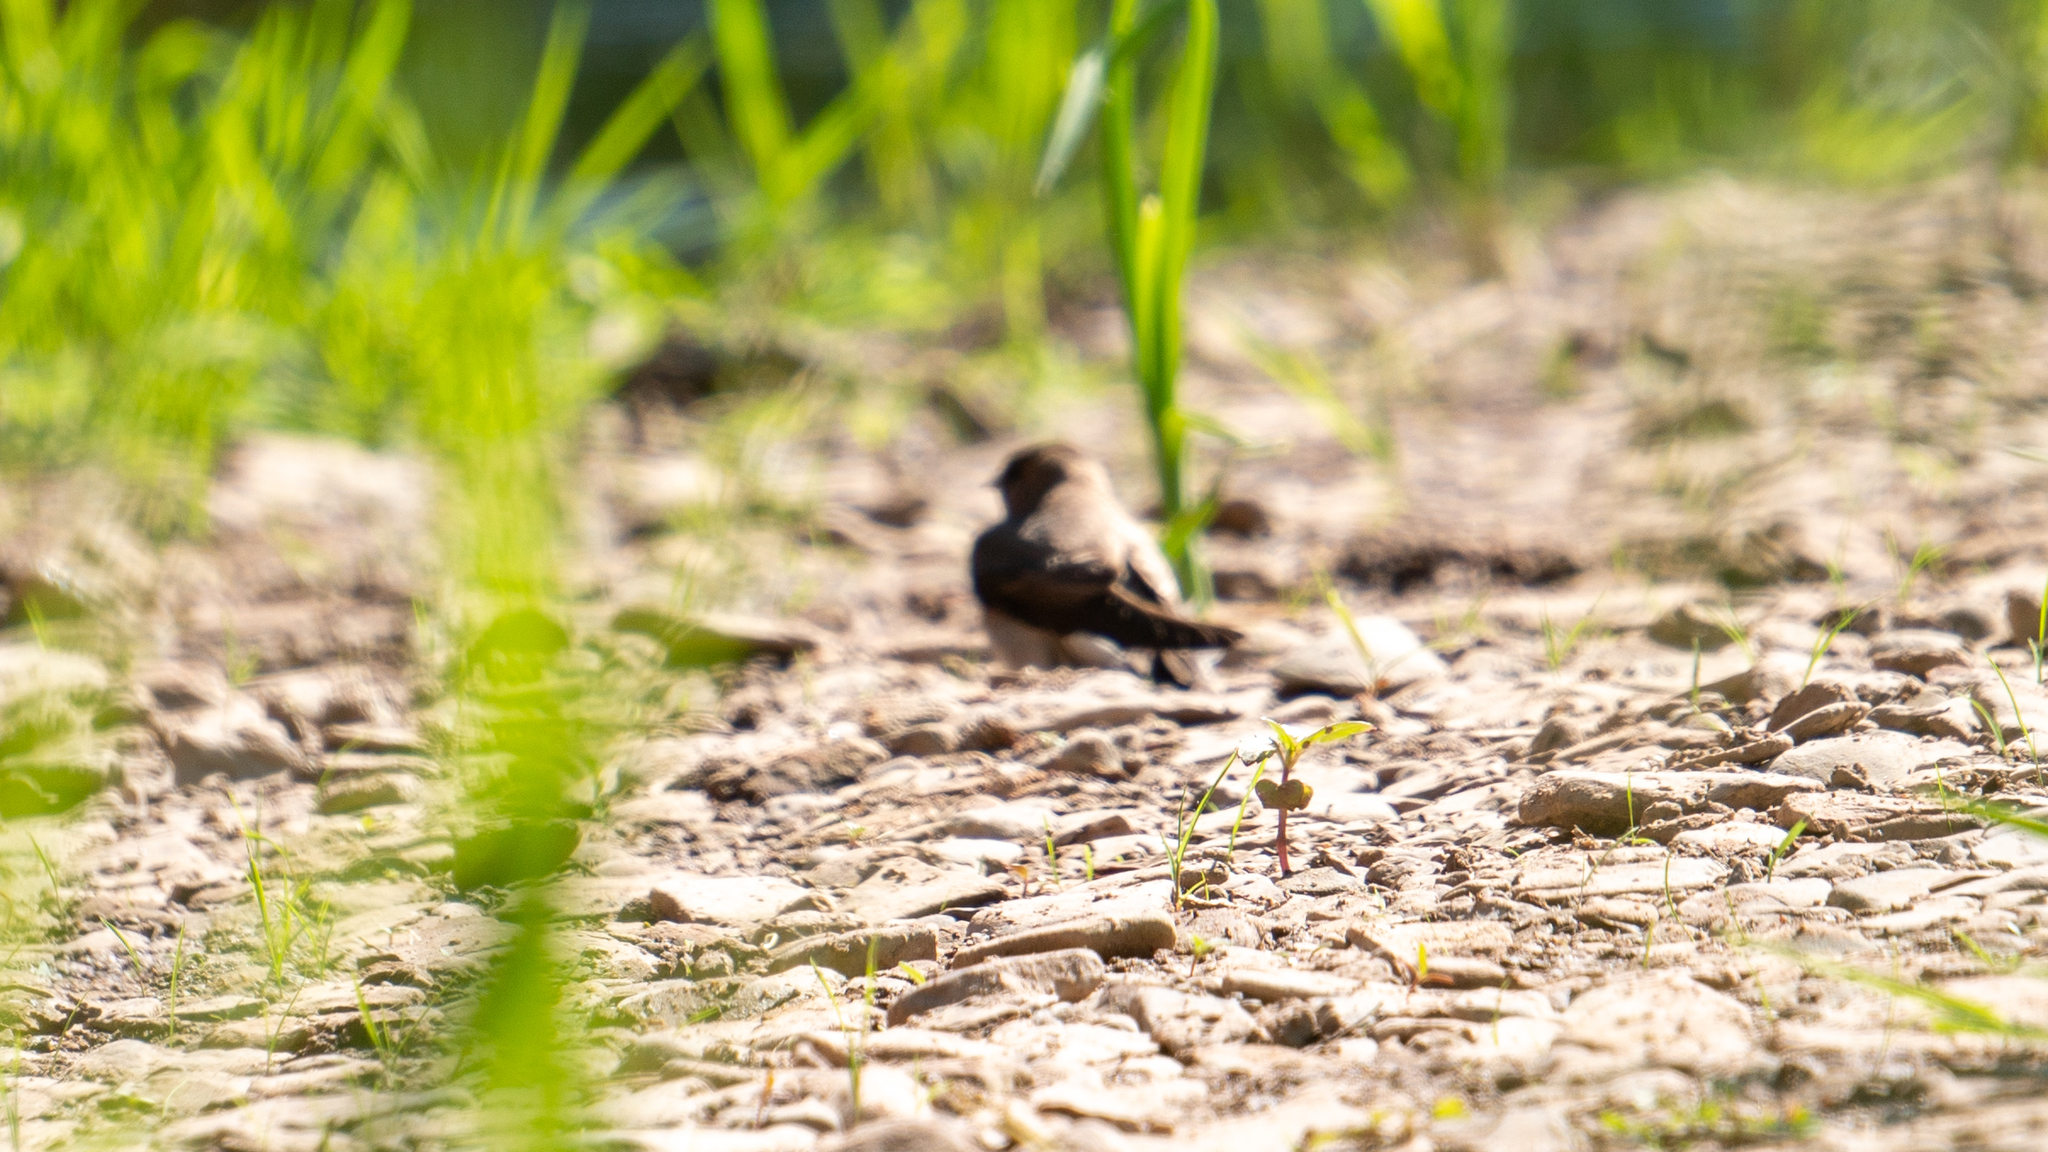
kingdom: Animalia
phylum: Chordata
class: Aves
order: Passeriformes
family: Hirundinidae
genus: Stelgidopteryx
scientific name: Stelgidopteryx serripennis
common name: Northern rough-winged swallow
